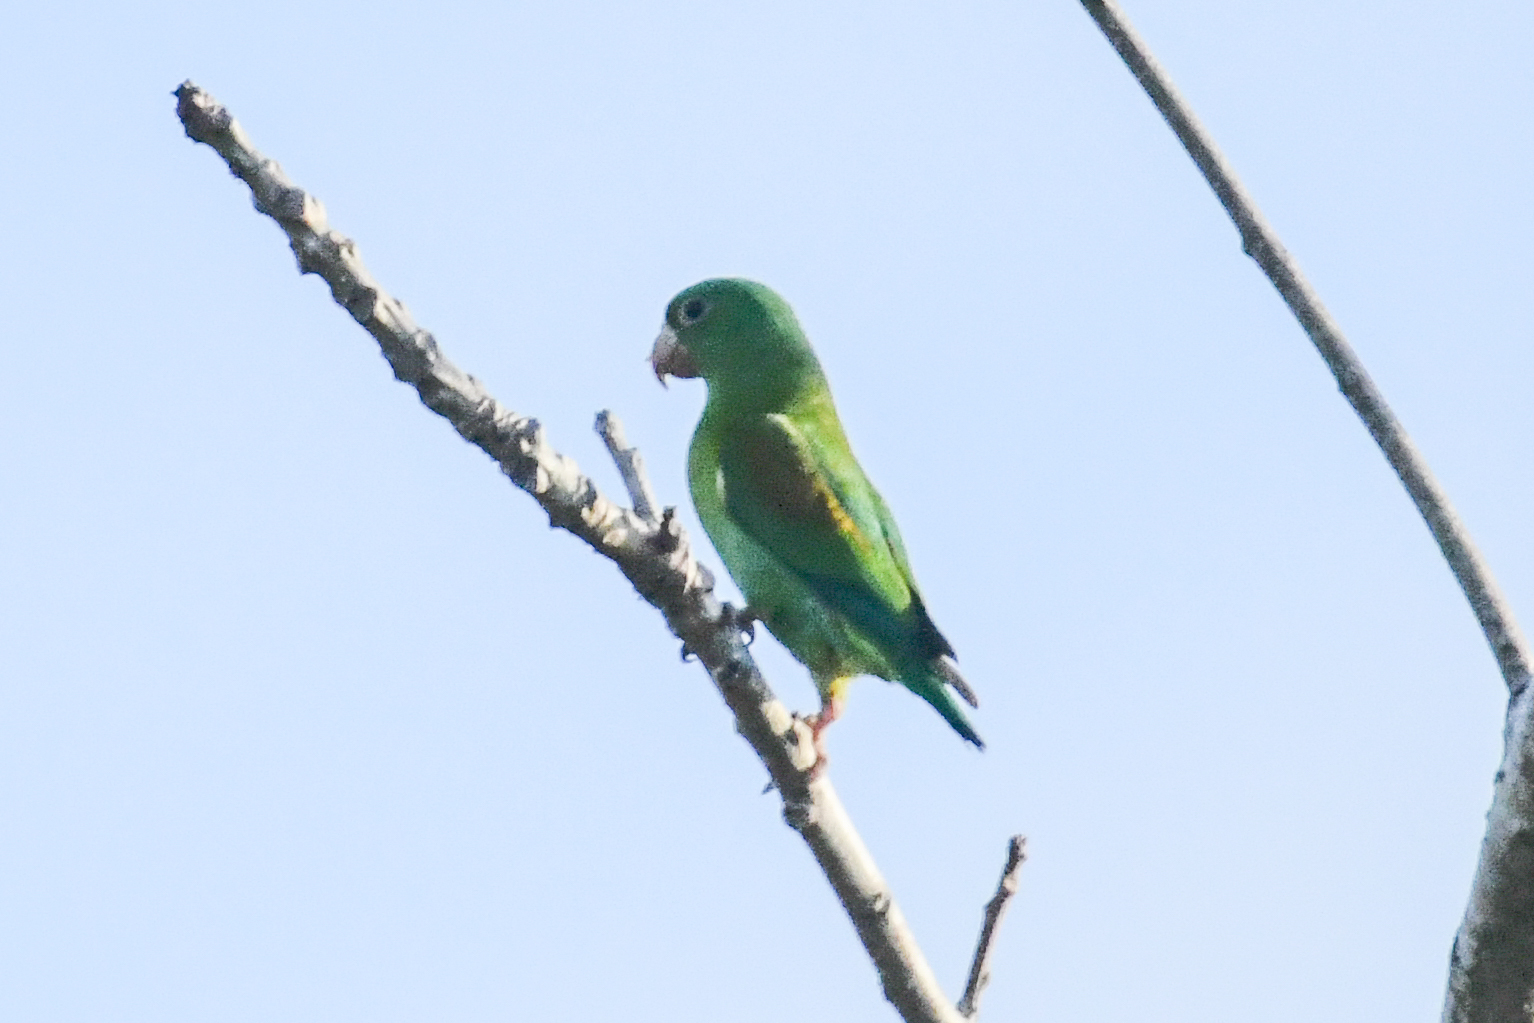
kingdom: Animalia
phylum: Chordata
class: Aves
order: Psittaciformes
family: Psittacidae
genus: Brotogeris
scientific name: Brotogeris jugularis
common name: Orange-chinned parakeet
